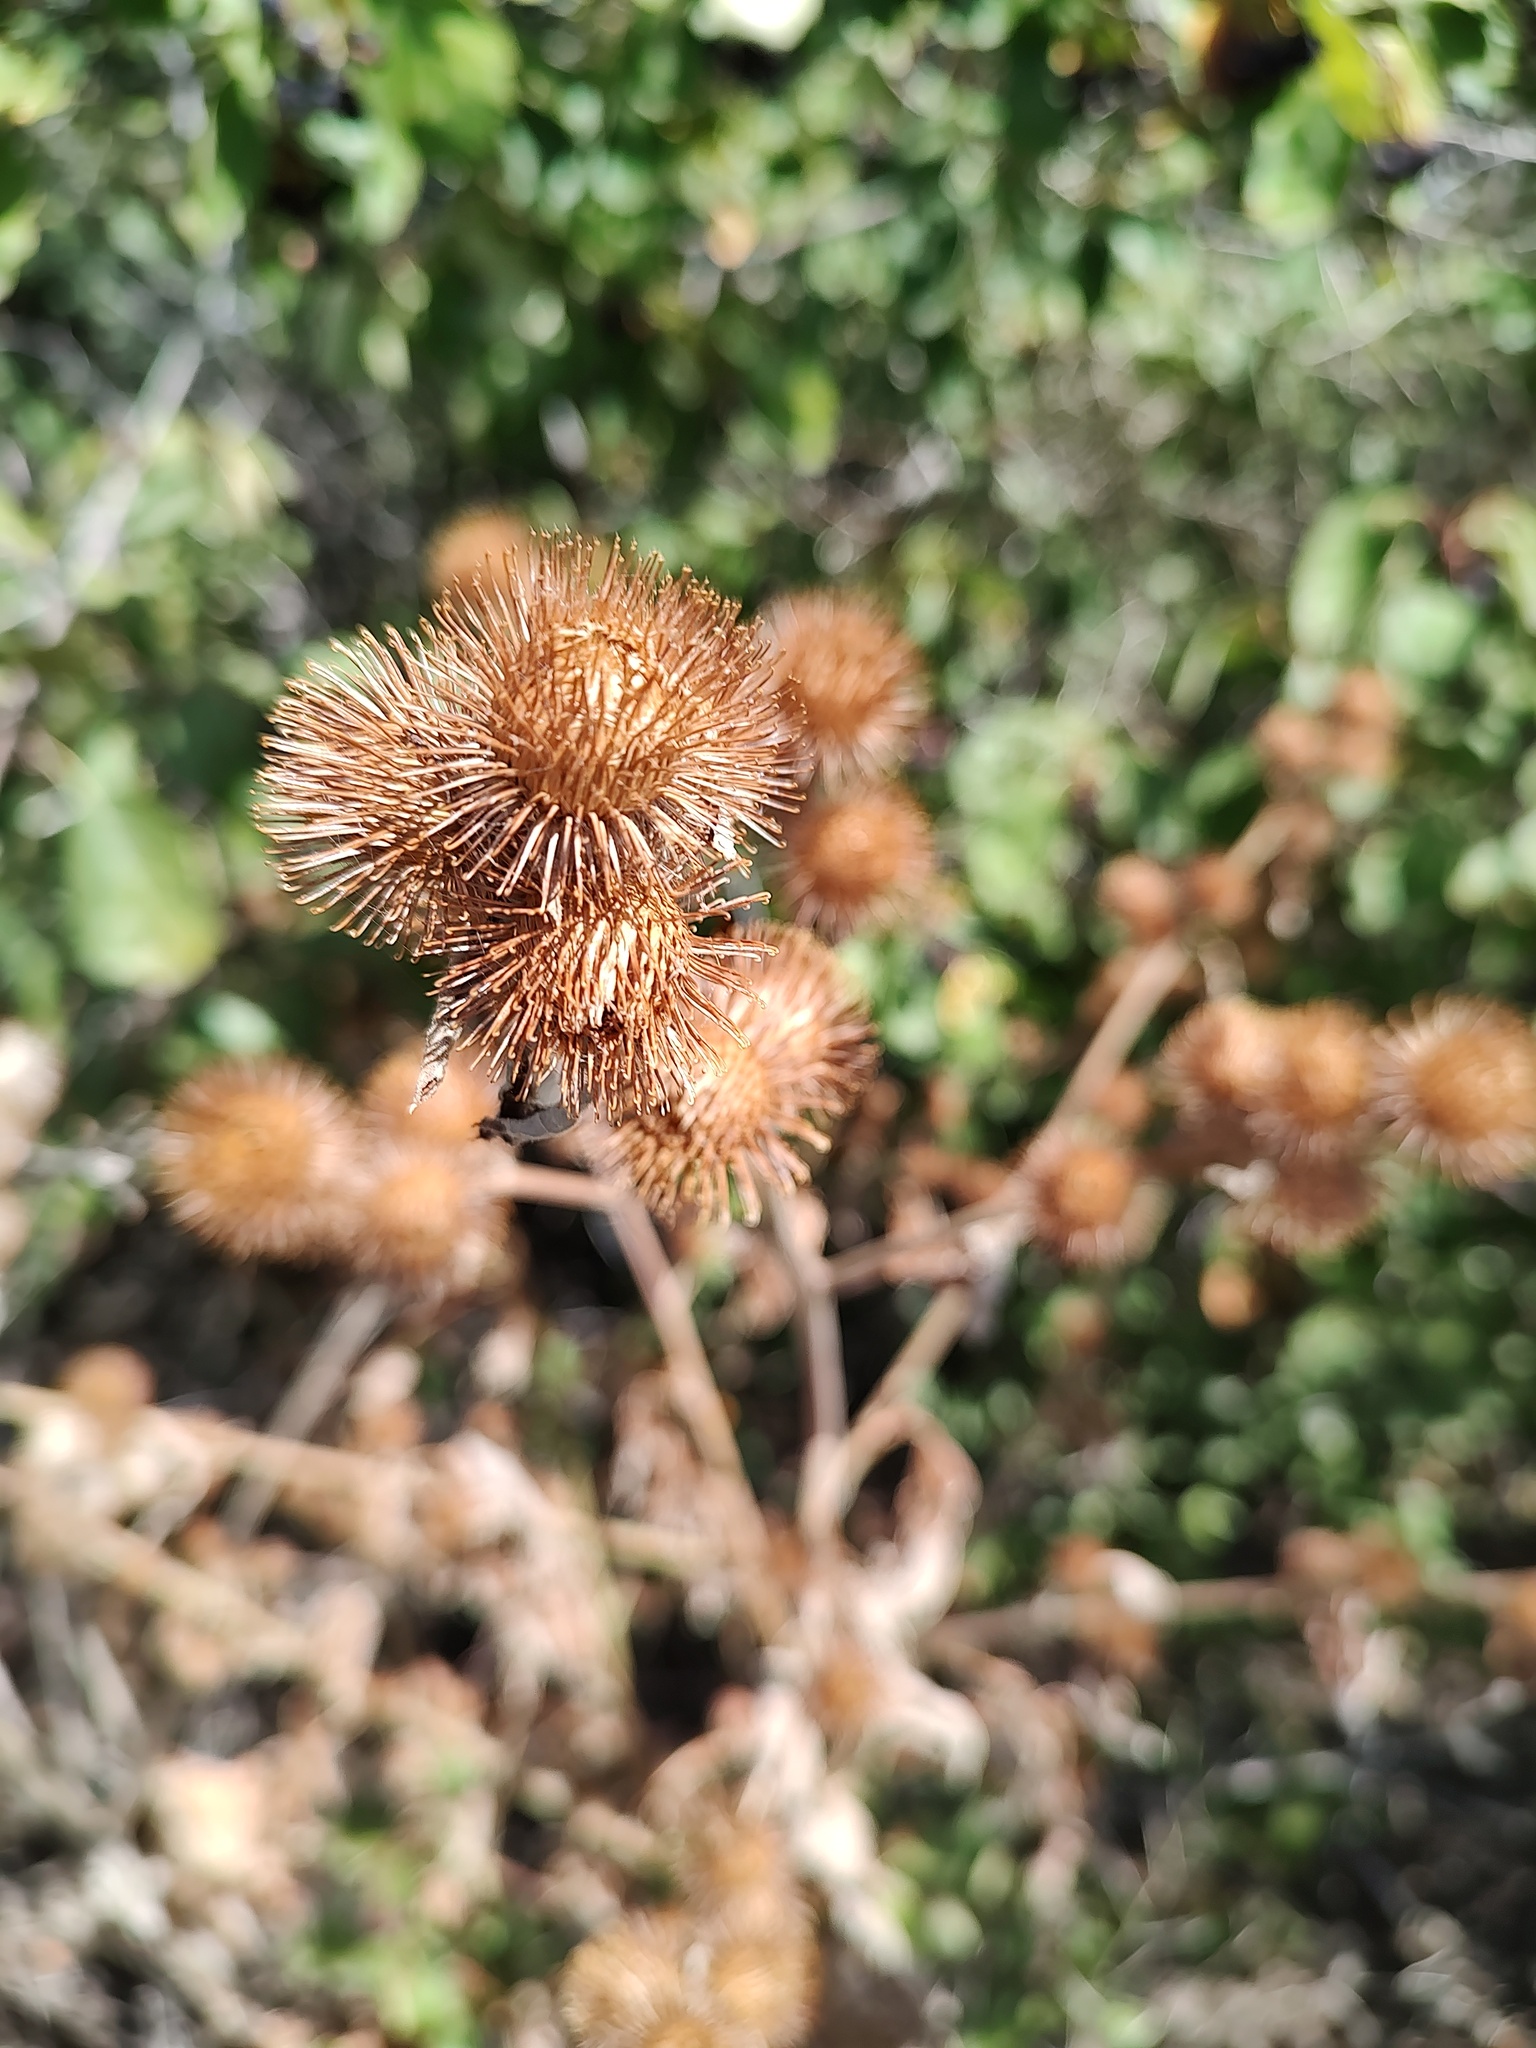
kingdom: Plantae
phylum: Tracheophyta
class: Magnoliopsida
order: Asterales
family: Asteraceae
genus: Arctium
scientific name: Arctium minus
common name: Lesser burdock
